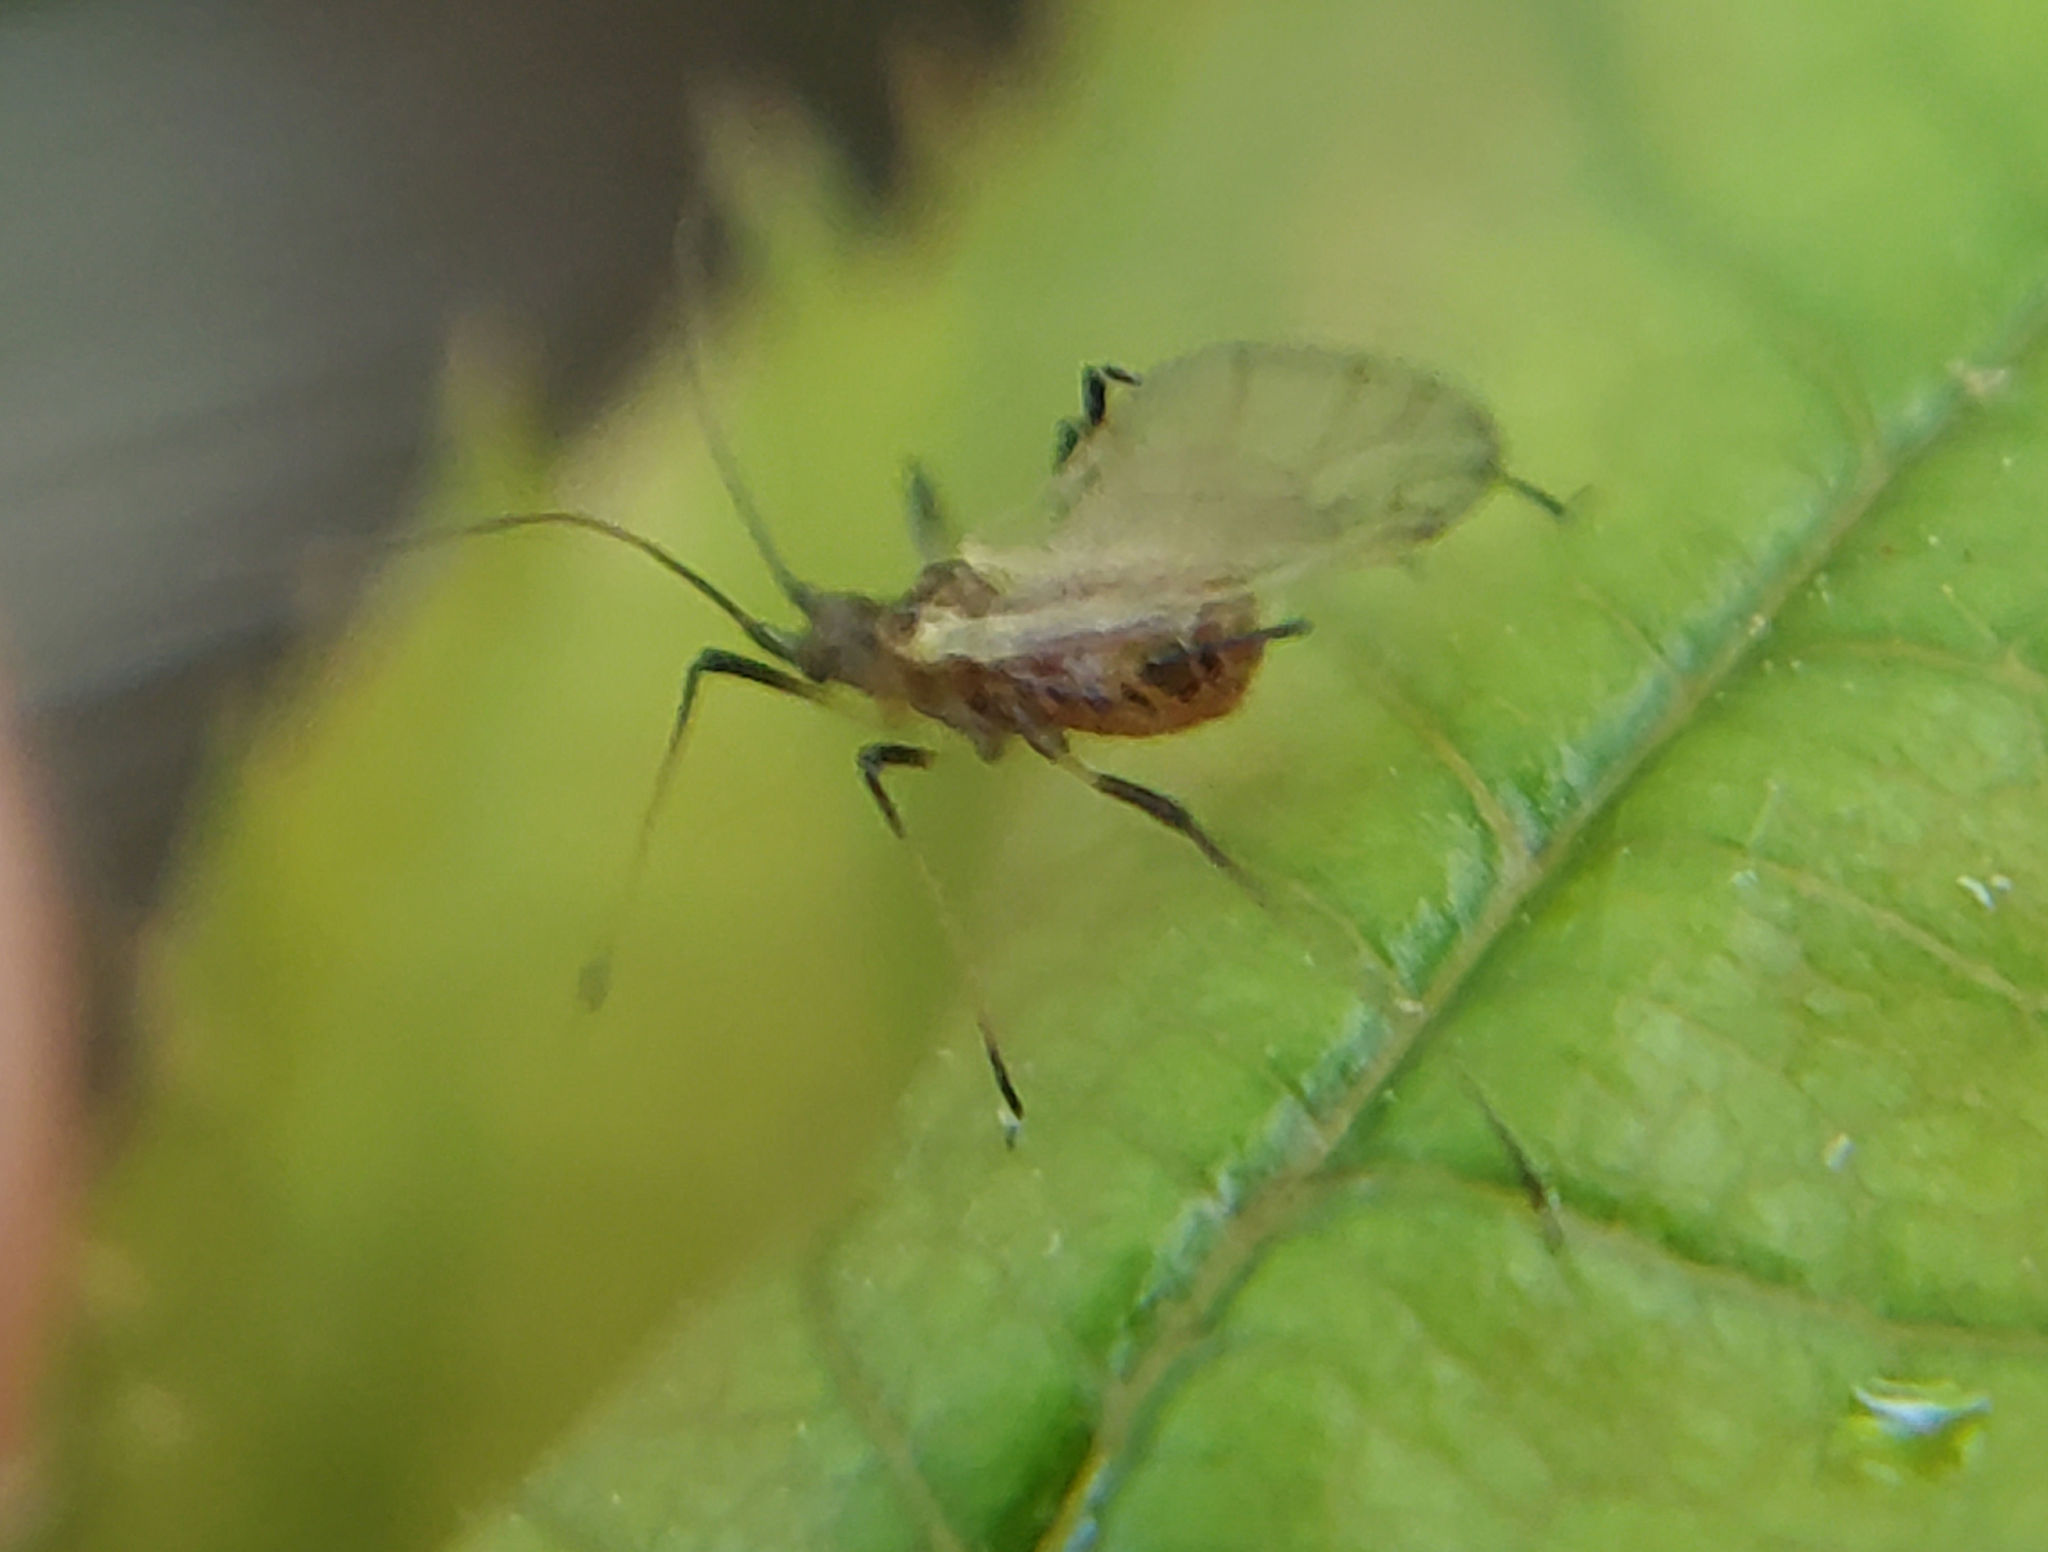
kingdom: Animalia
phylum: Arthropoda
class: Insecta
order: Hemiptera
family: Aphididae
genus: Macrosiphum
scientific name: Macrosiphum rosae
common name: Rose aphid
